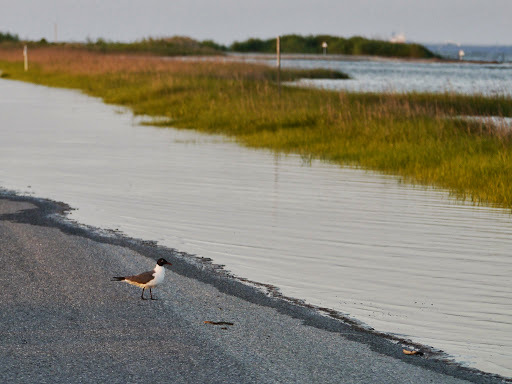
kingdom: Animalia
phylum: Chordata
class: Aves
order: Charadriiformes
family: Laridae
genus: Leucophaeus
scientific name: Leucophaeus atricilla
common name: Laughing gull
